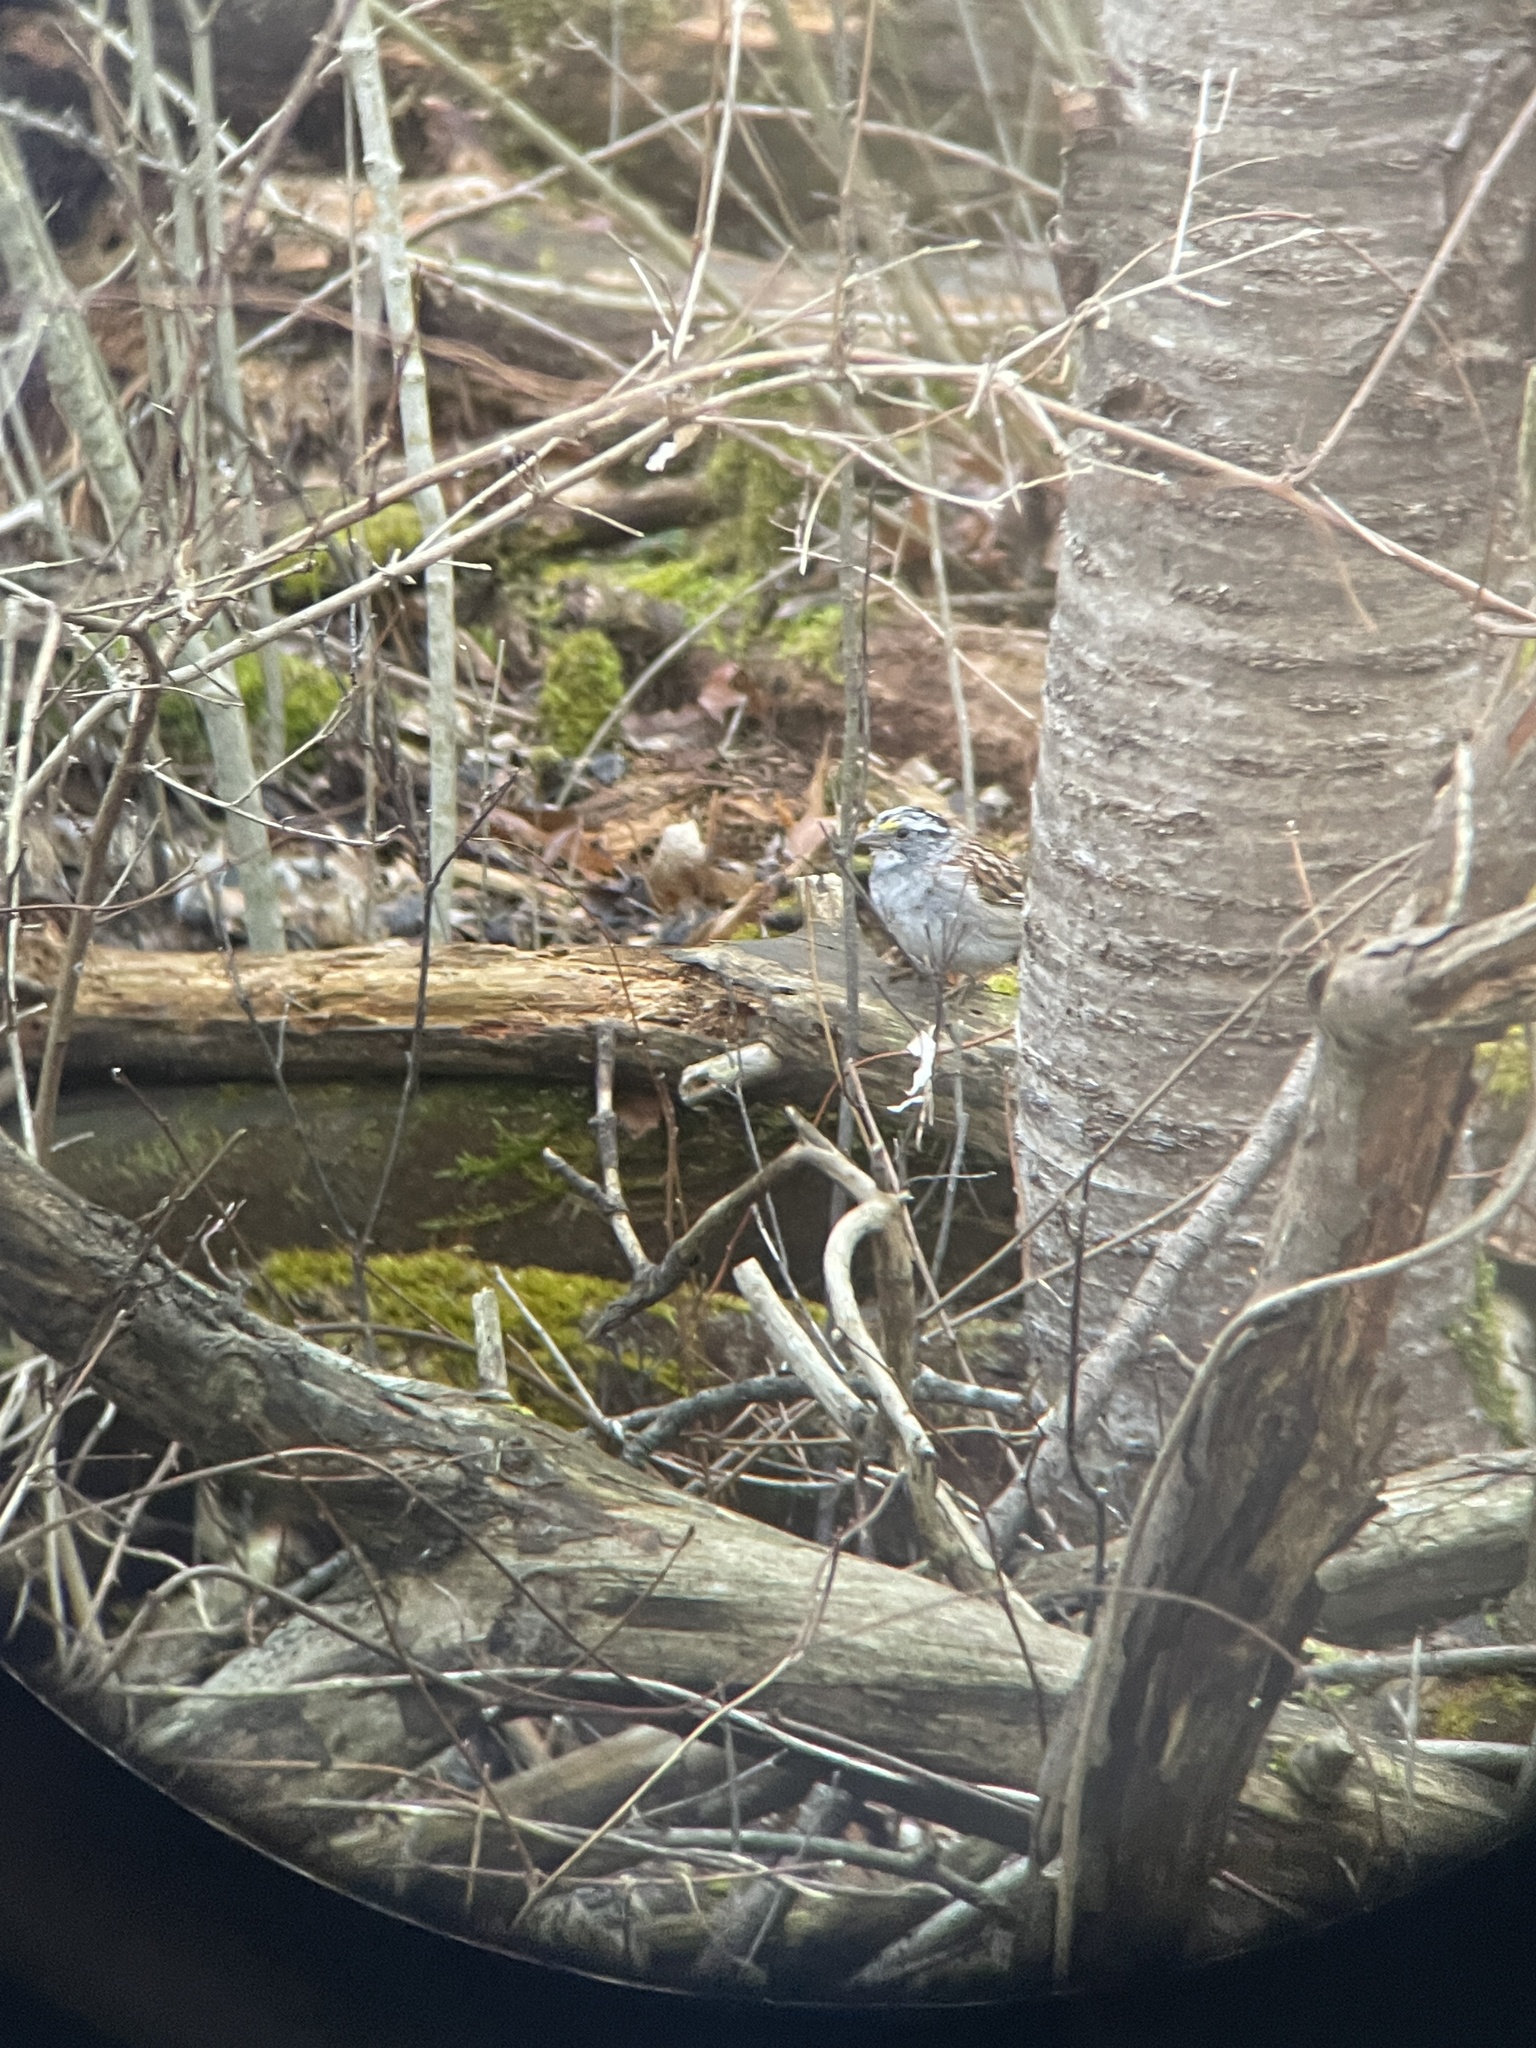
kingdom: Animalia
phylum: Chordata
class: Aves
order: Passeriformes
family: Passerellidae
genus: Zonotrichia
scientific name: Zonotrichia albicollis
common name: White-throated sparrow
